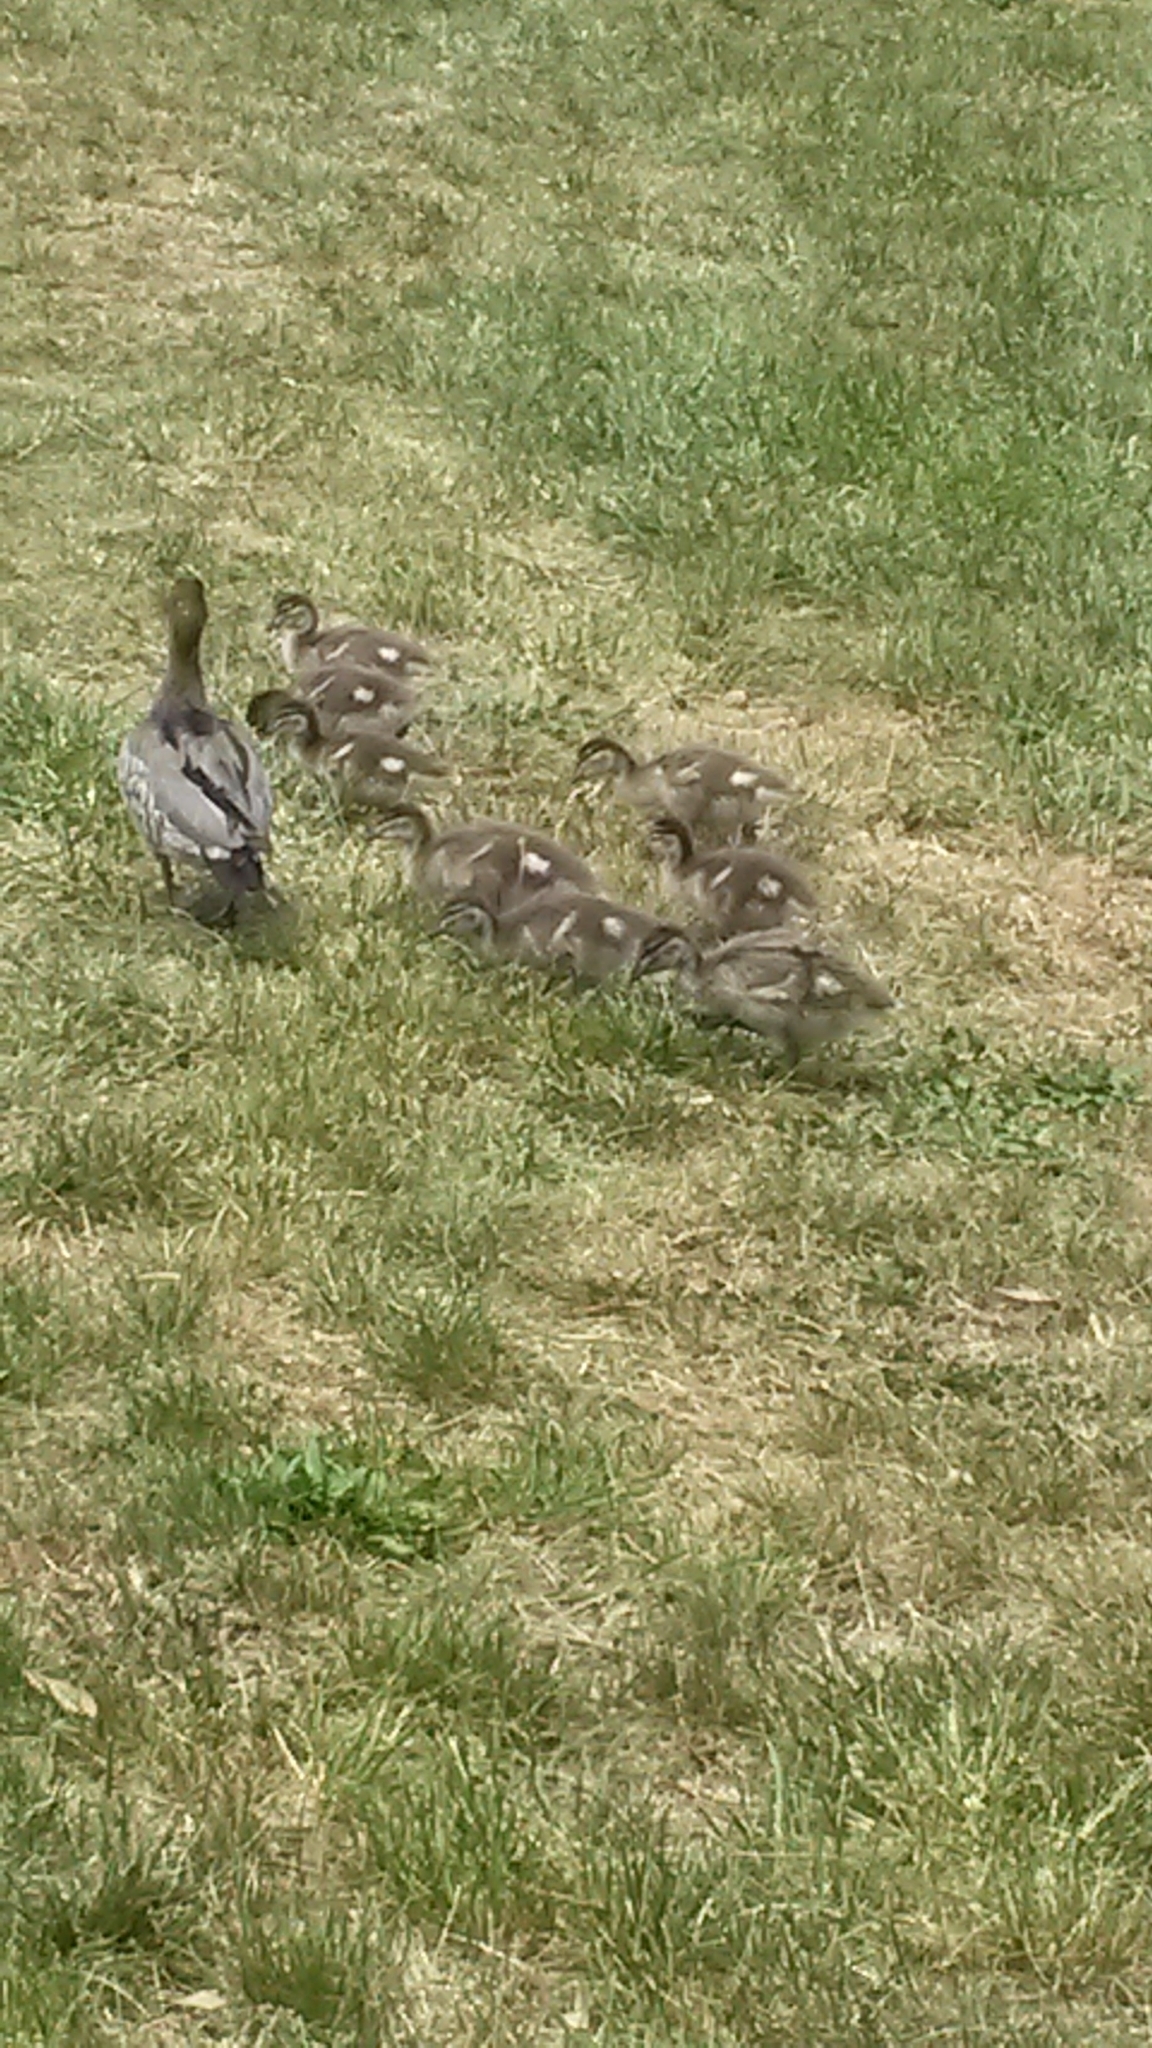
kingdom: Animalia
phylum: Chordata
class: Aves
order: Anseriformes
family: Anatidae
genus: Chenonetta
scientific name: Chenonetta jubata
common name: Maned duck
